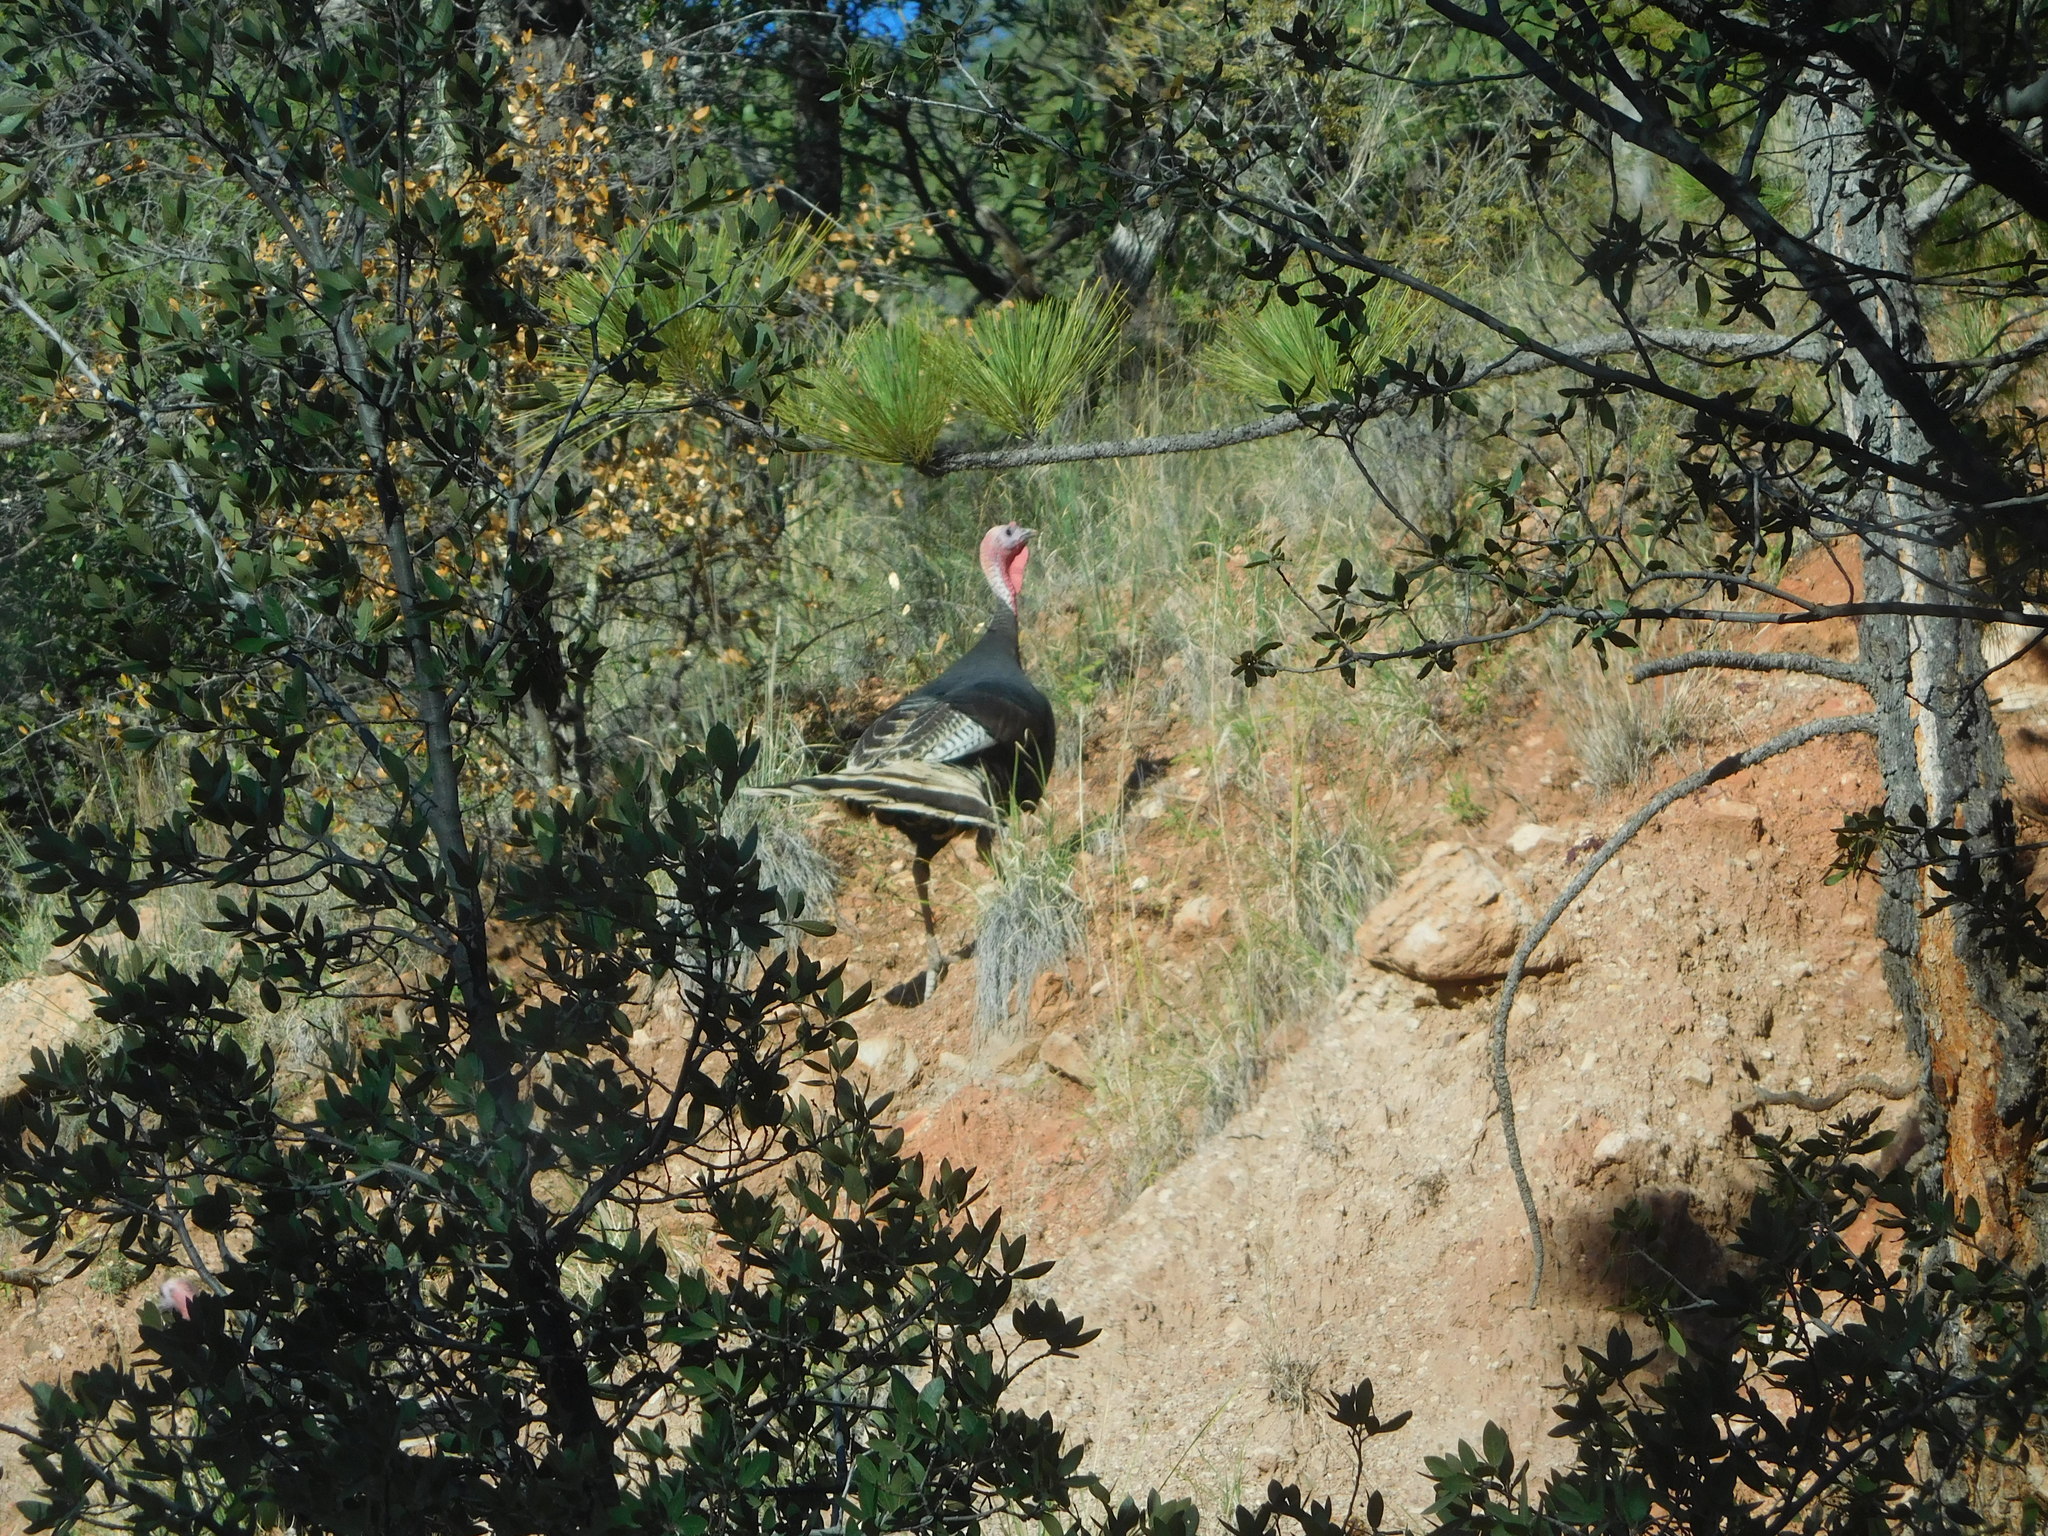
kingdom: Animalia
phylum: Chordata
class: Aves
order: Galliformes
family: Phasianidae
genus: Meleagris
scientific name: Meleagris gallopavo
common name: Wild turkey
